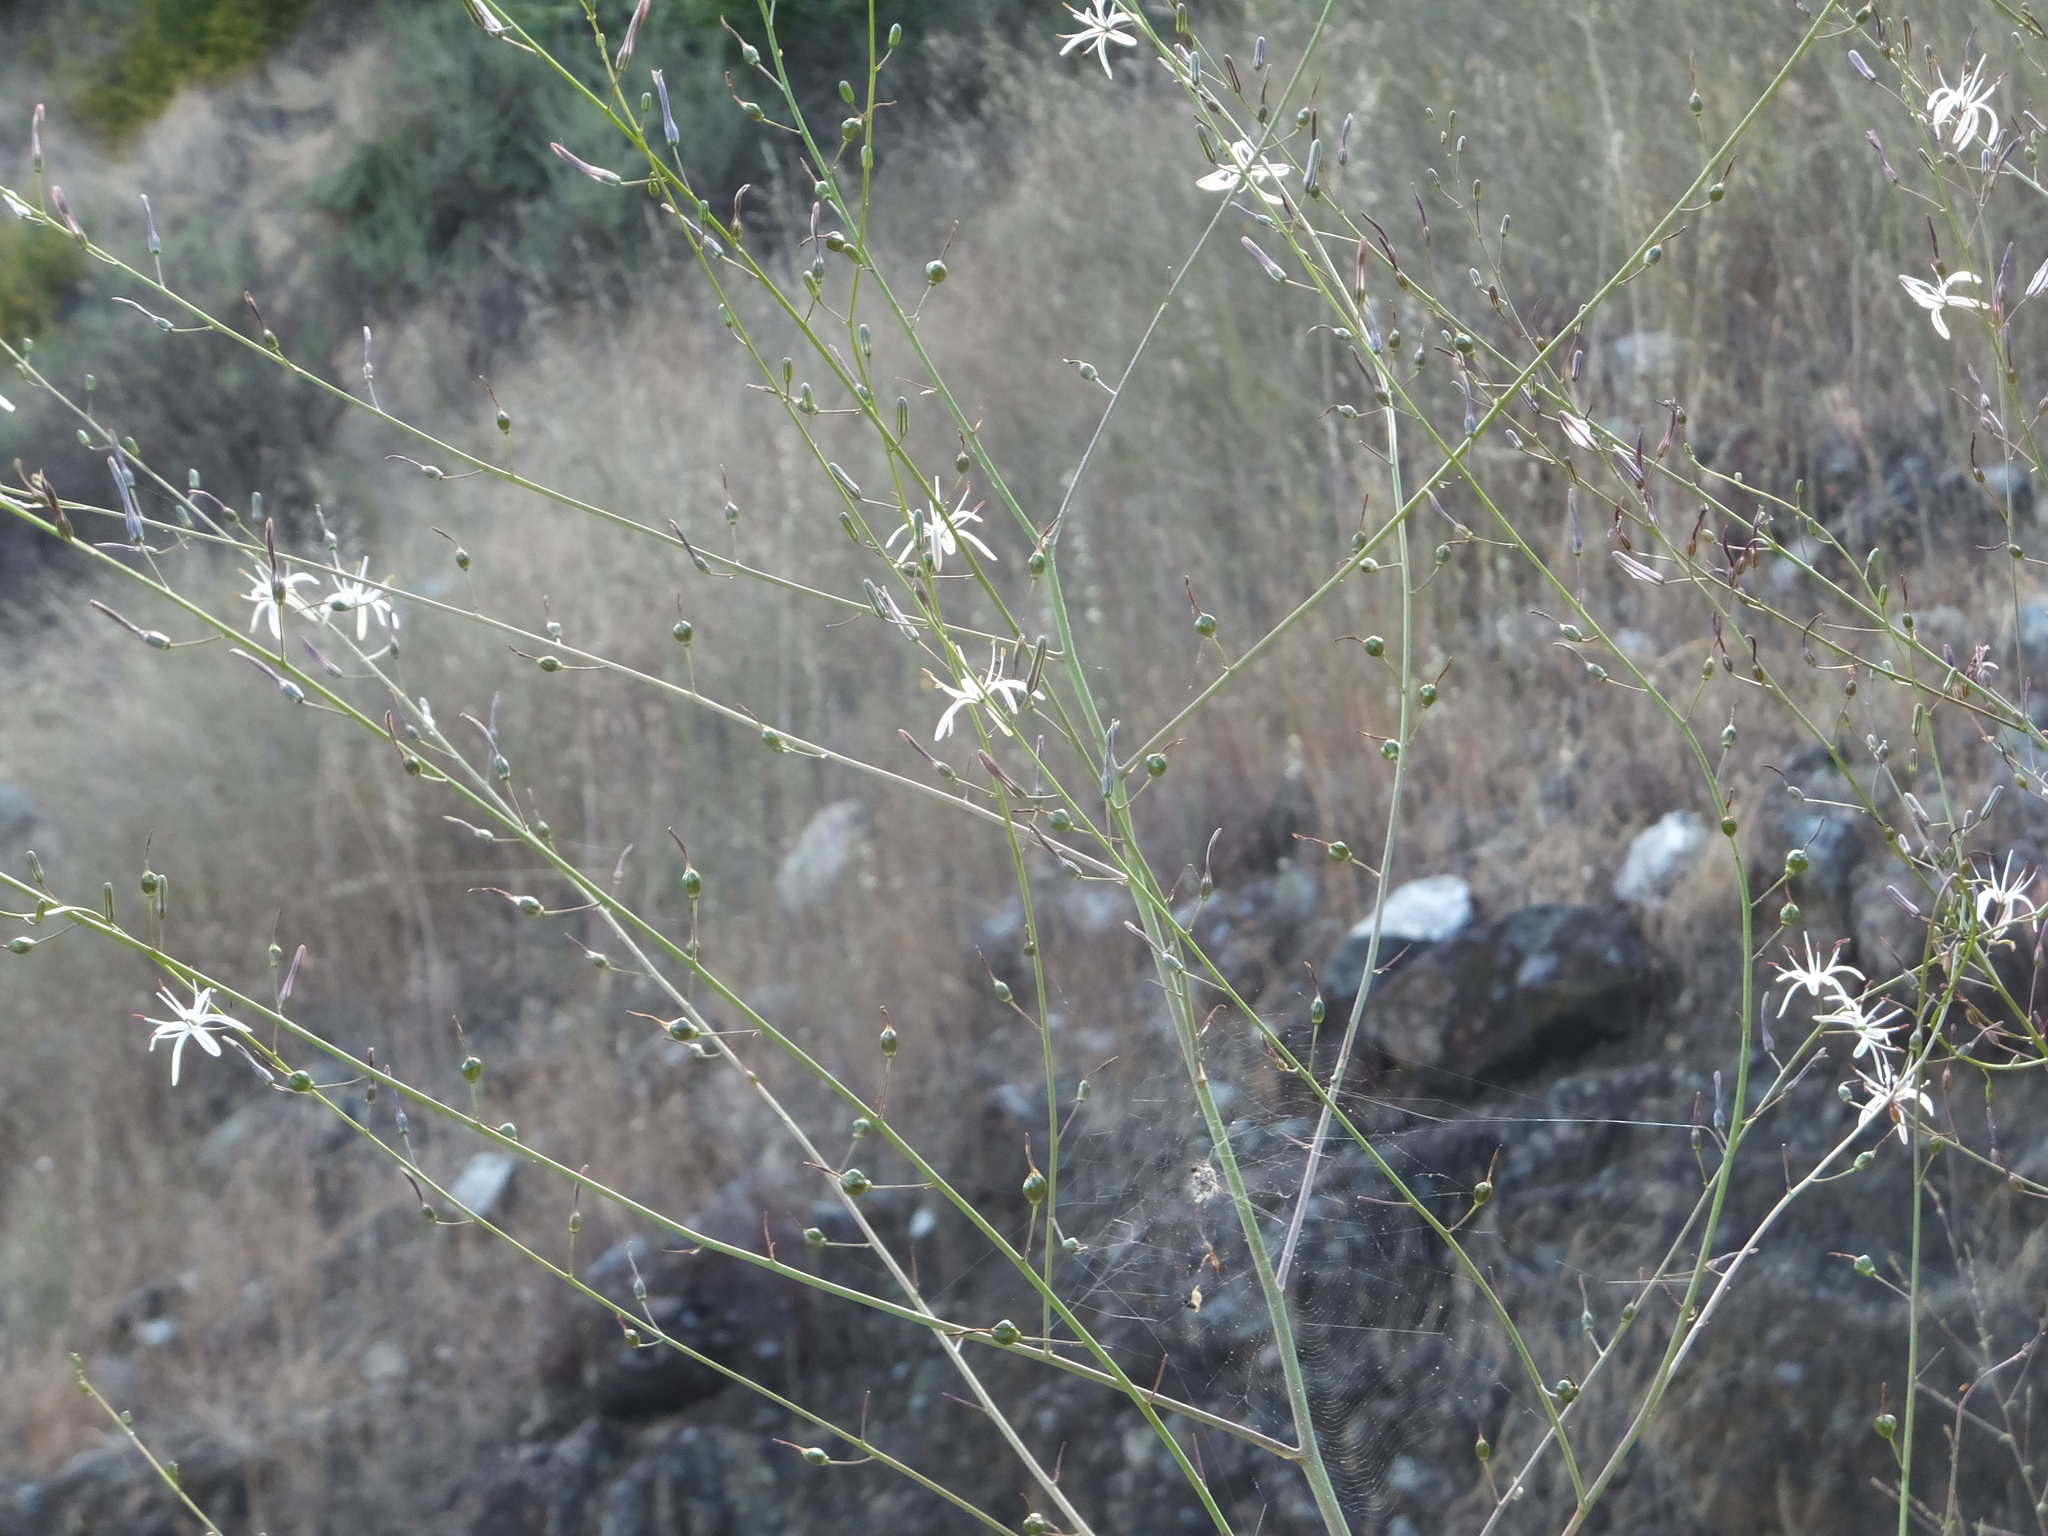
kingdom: Plantae
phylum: Tracheophyta
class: Liliopsida
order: Asparagales
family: Asparagaceae
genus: Chlorogalum
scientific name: Chlorogalum pomeridianum
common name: Amole
